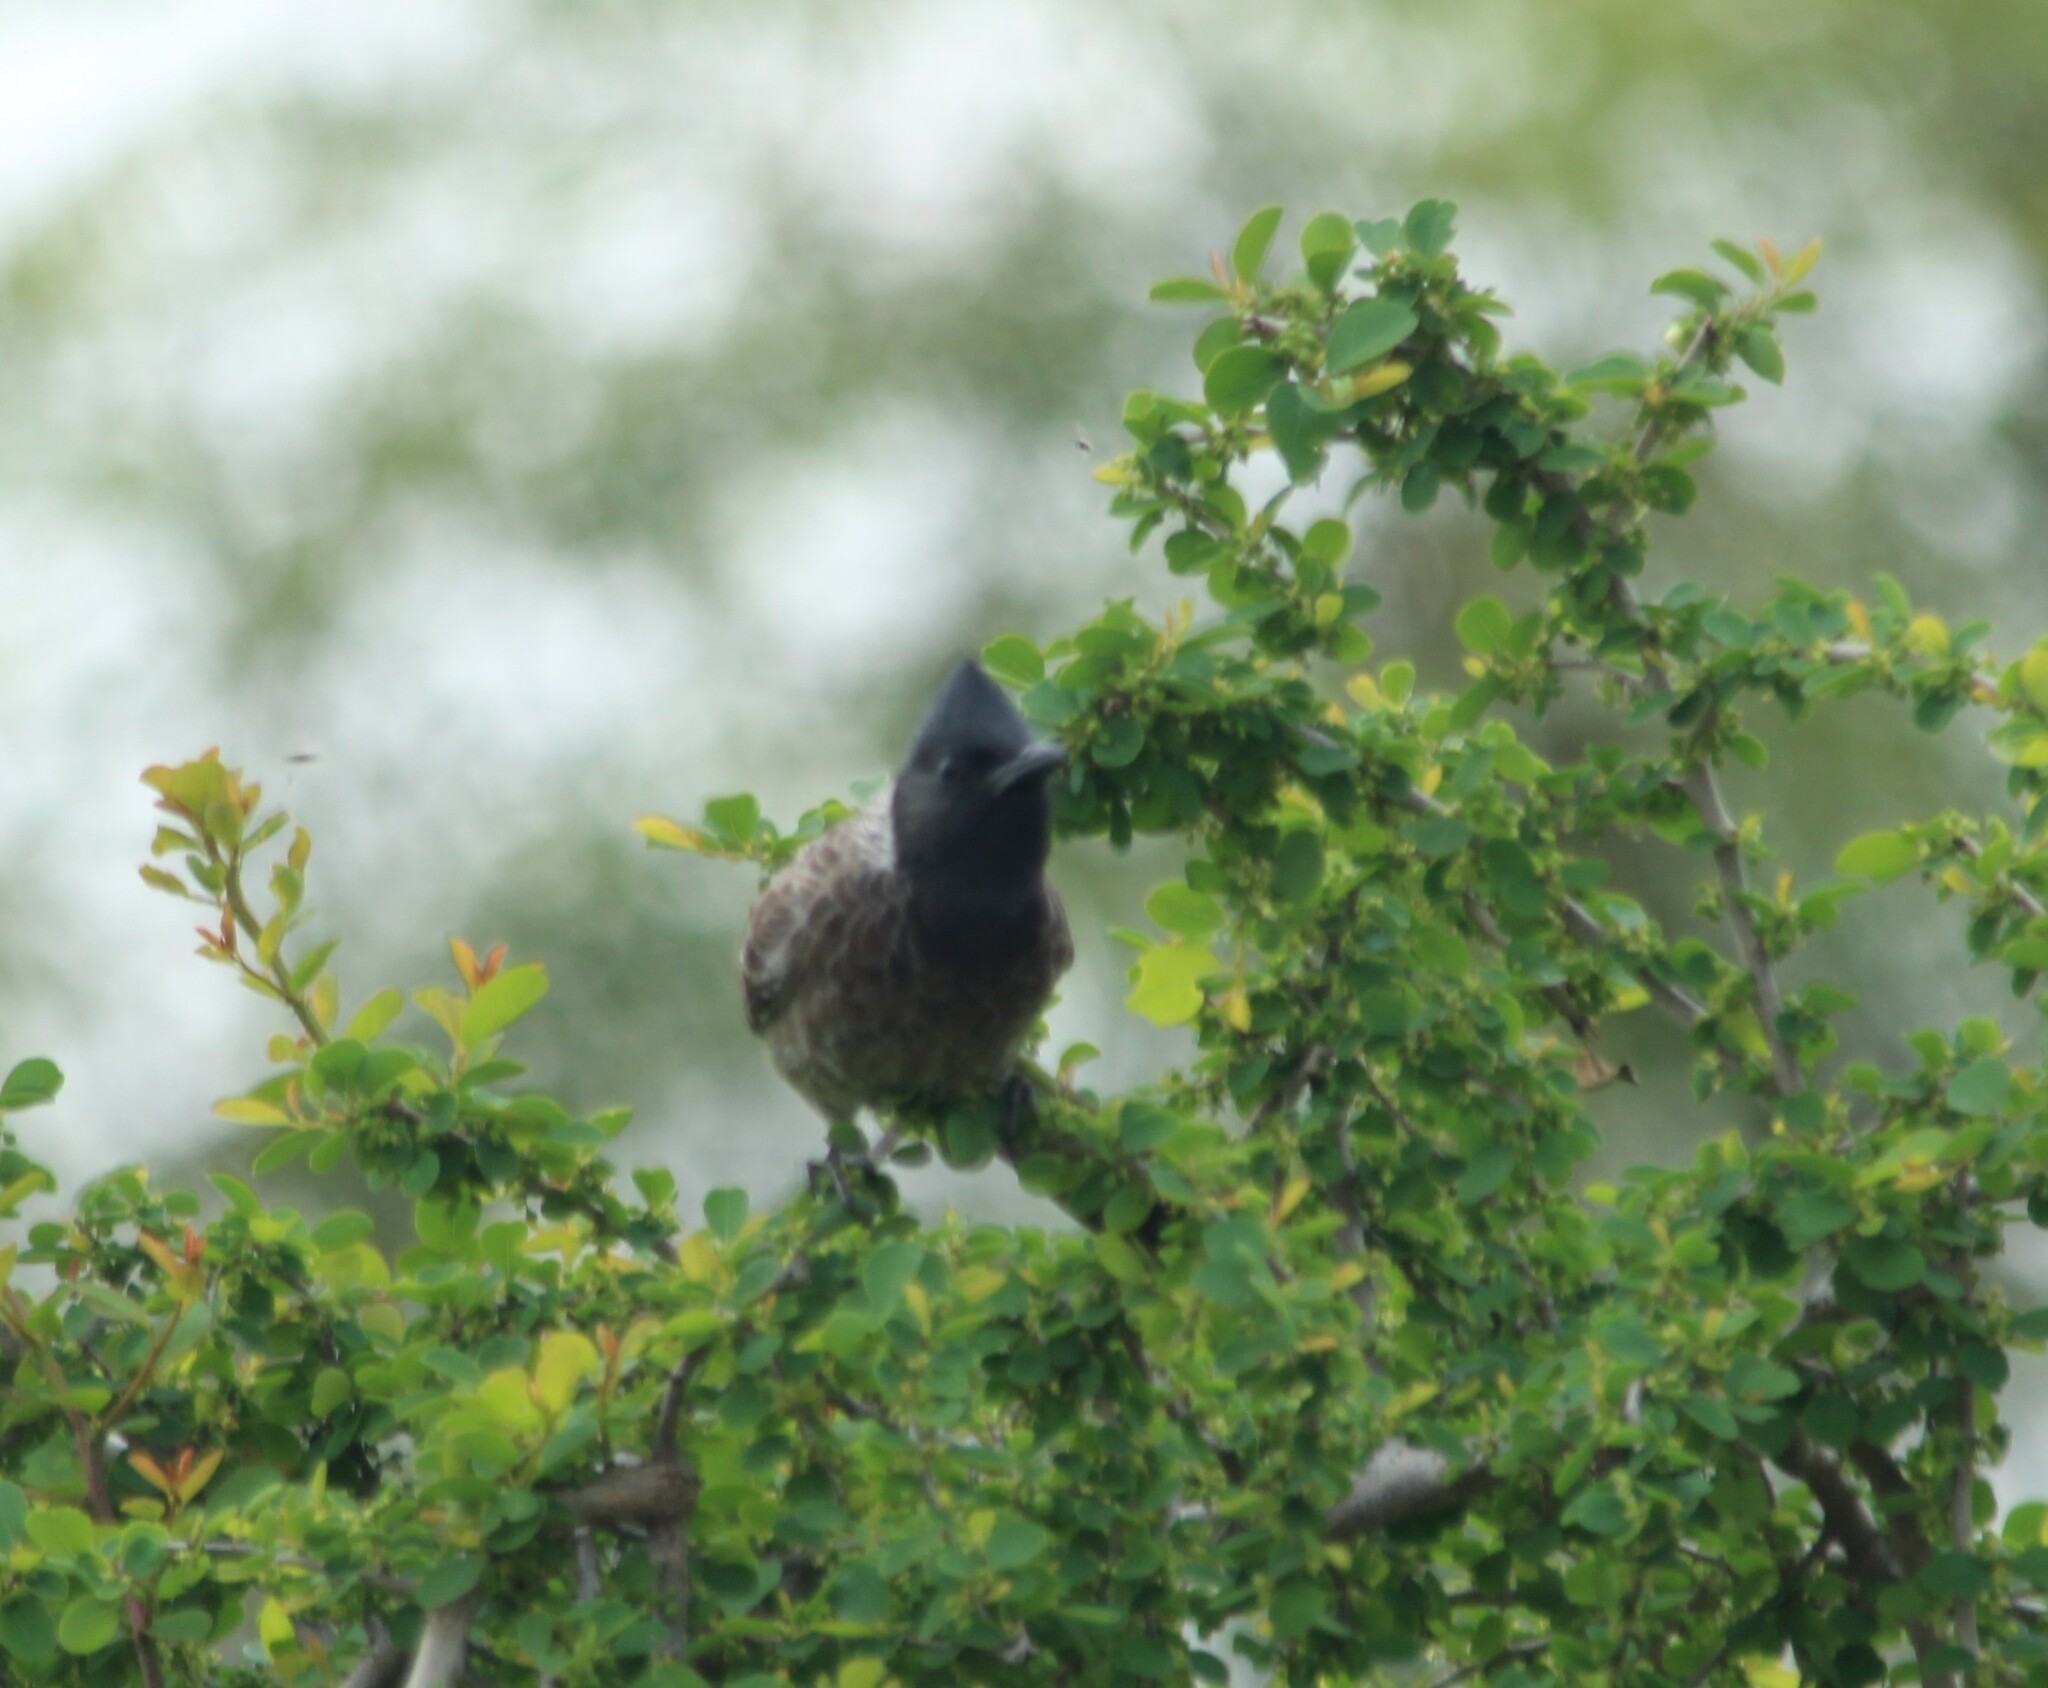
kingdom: Animalia
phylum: Chordata
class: Aves
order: Passeriformes
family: Pycnonotidae
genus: Pycnonotus
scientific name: Pycnonotus cafer
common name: Red-vented bulbul
